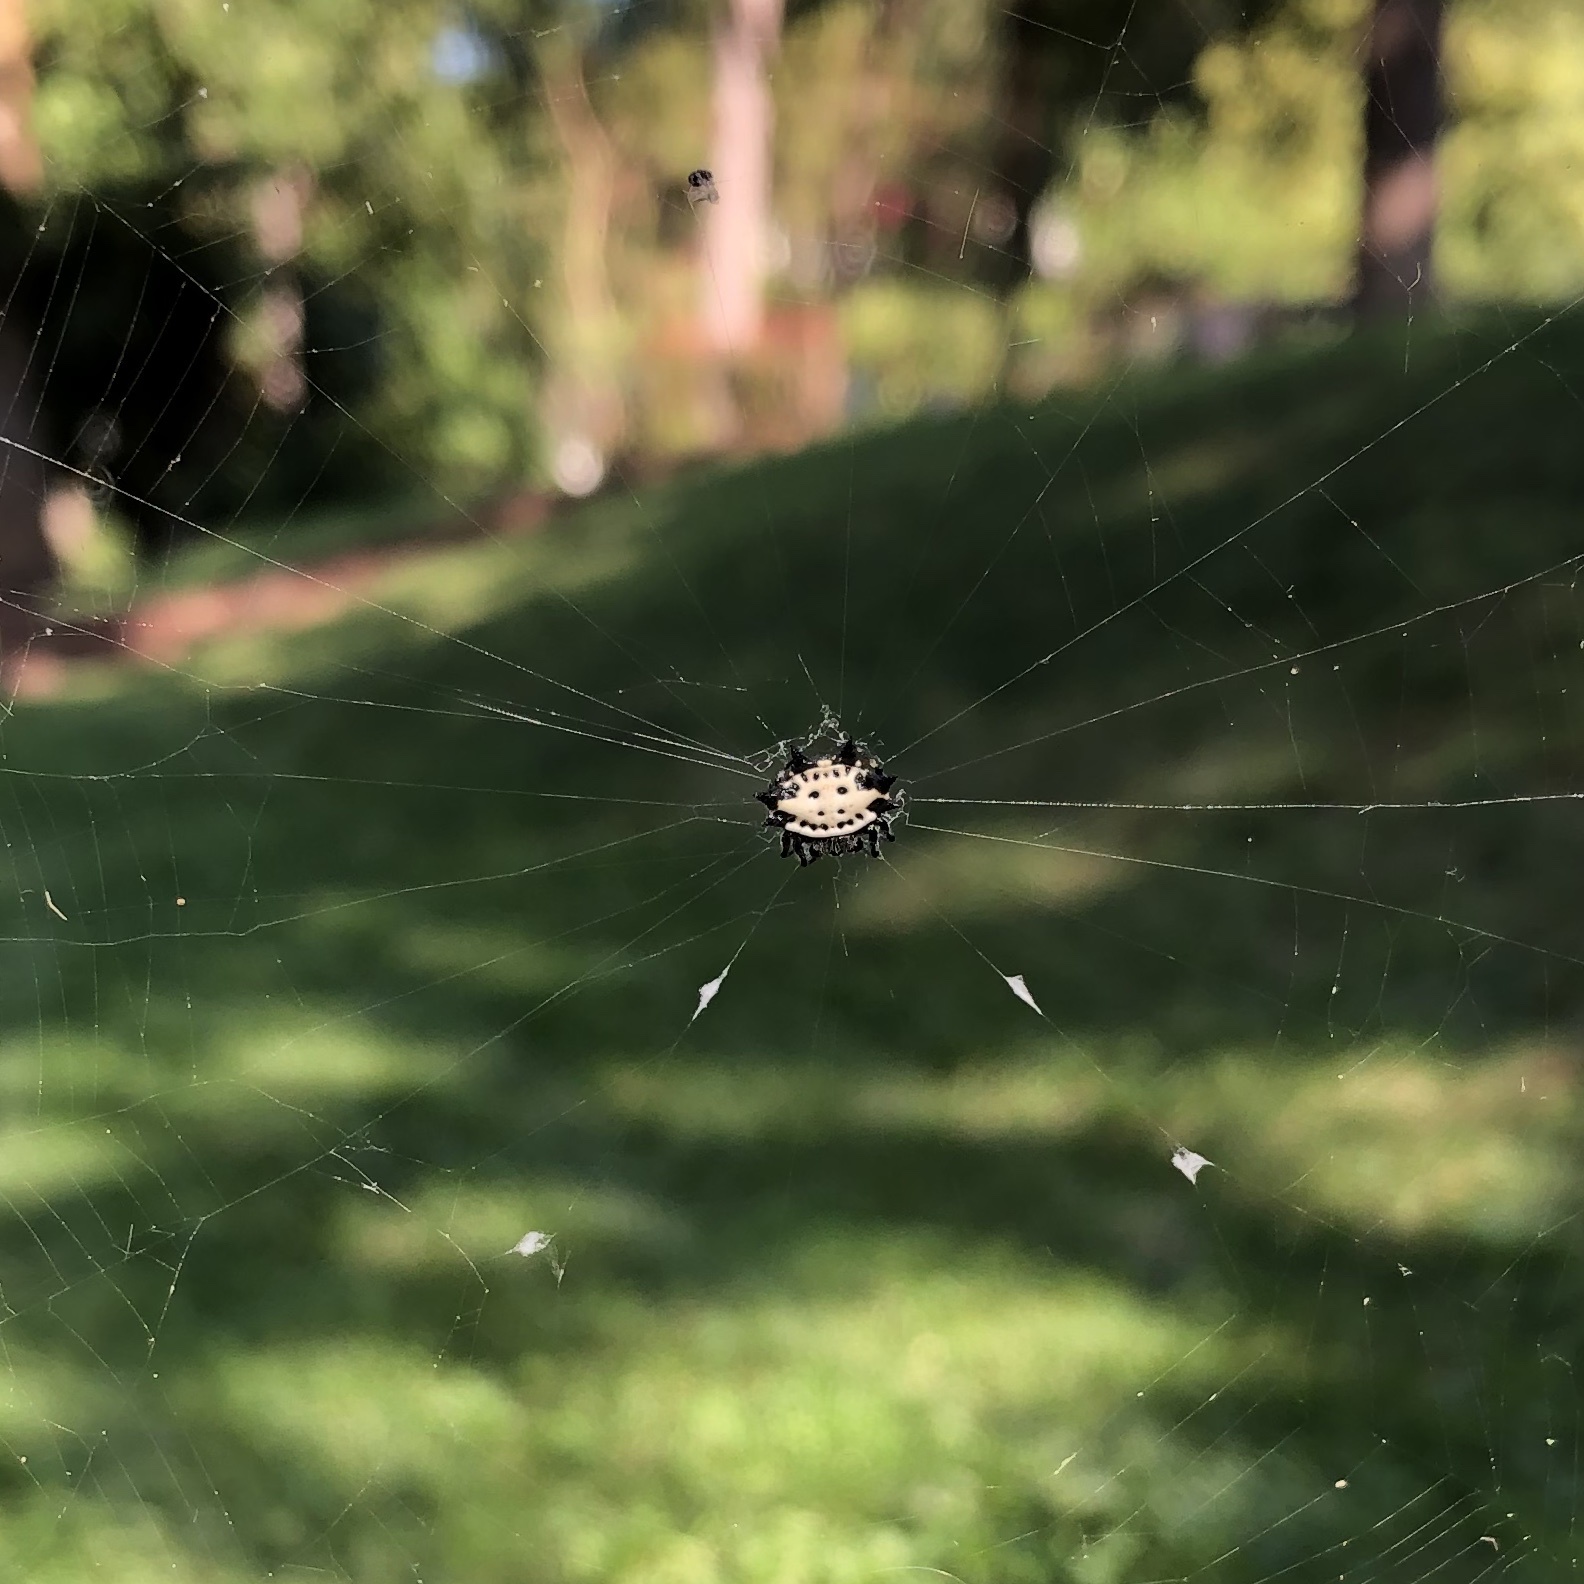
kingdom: Animalia
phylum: Arthropoda
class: Arachnida
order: Araneae
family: Araneidae
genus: Gasteracantha
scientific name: Gasteracantha cancriformis
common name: Orb weavers
